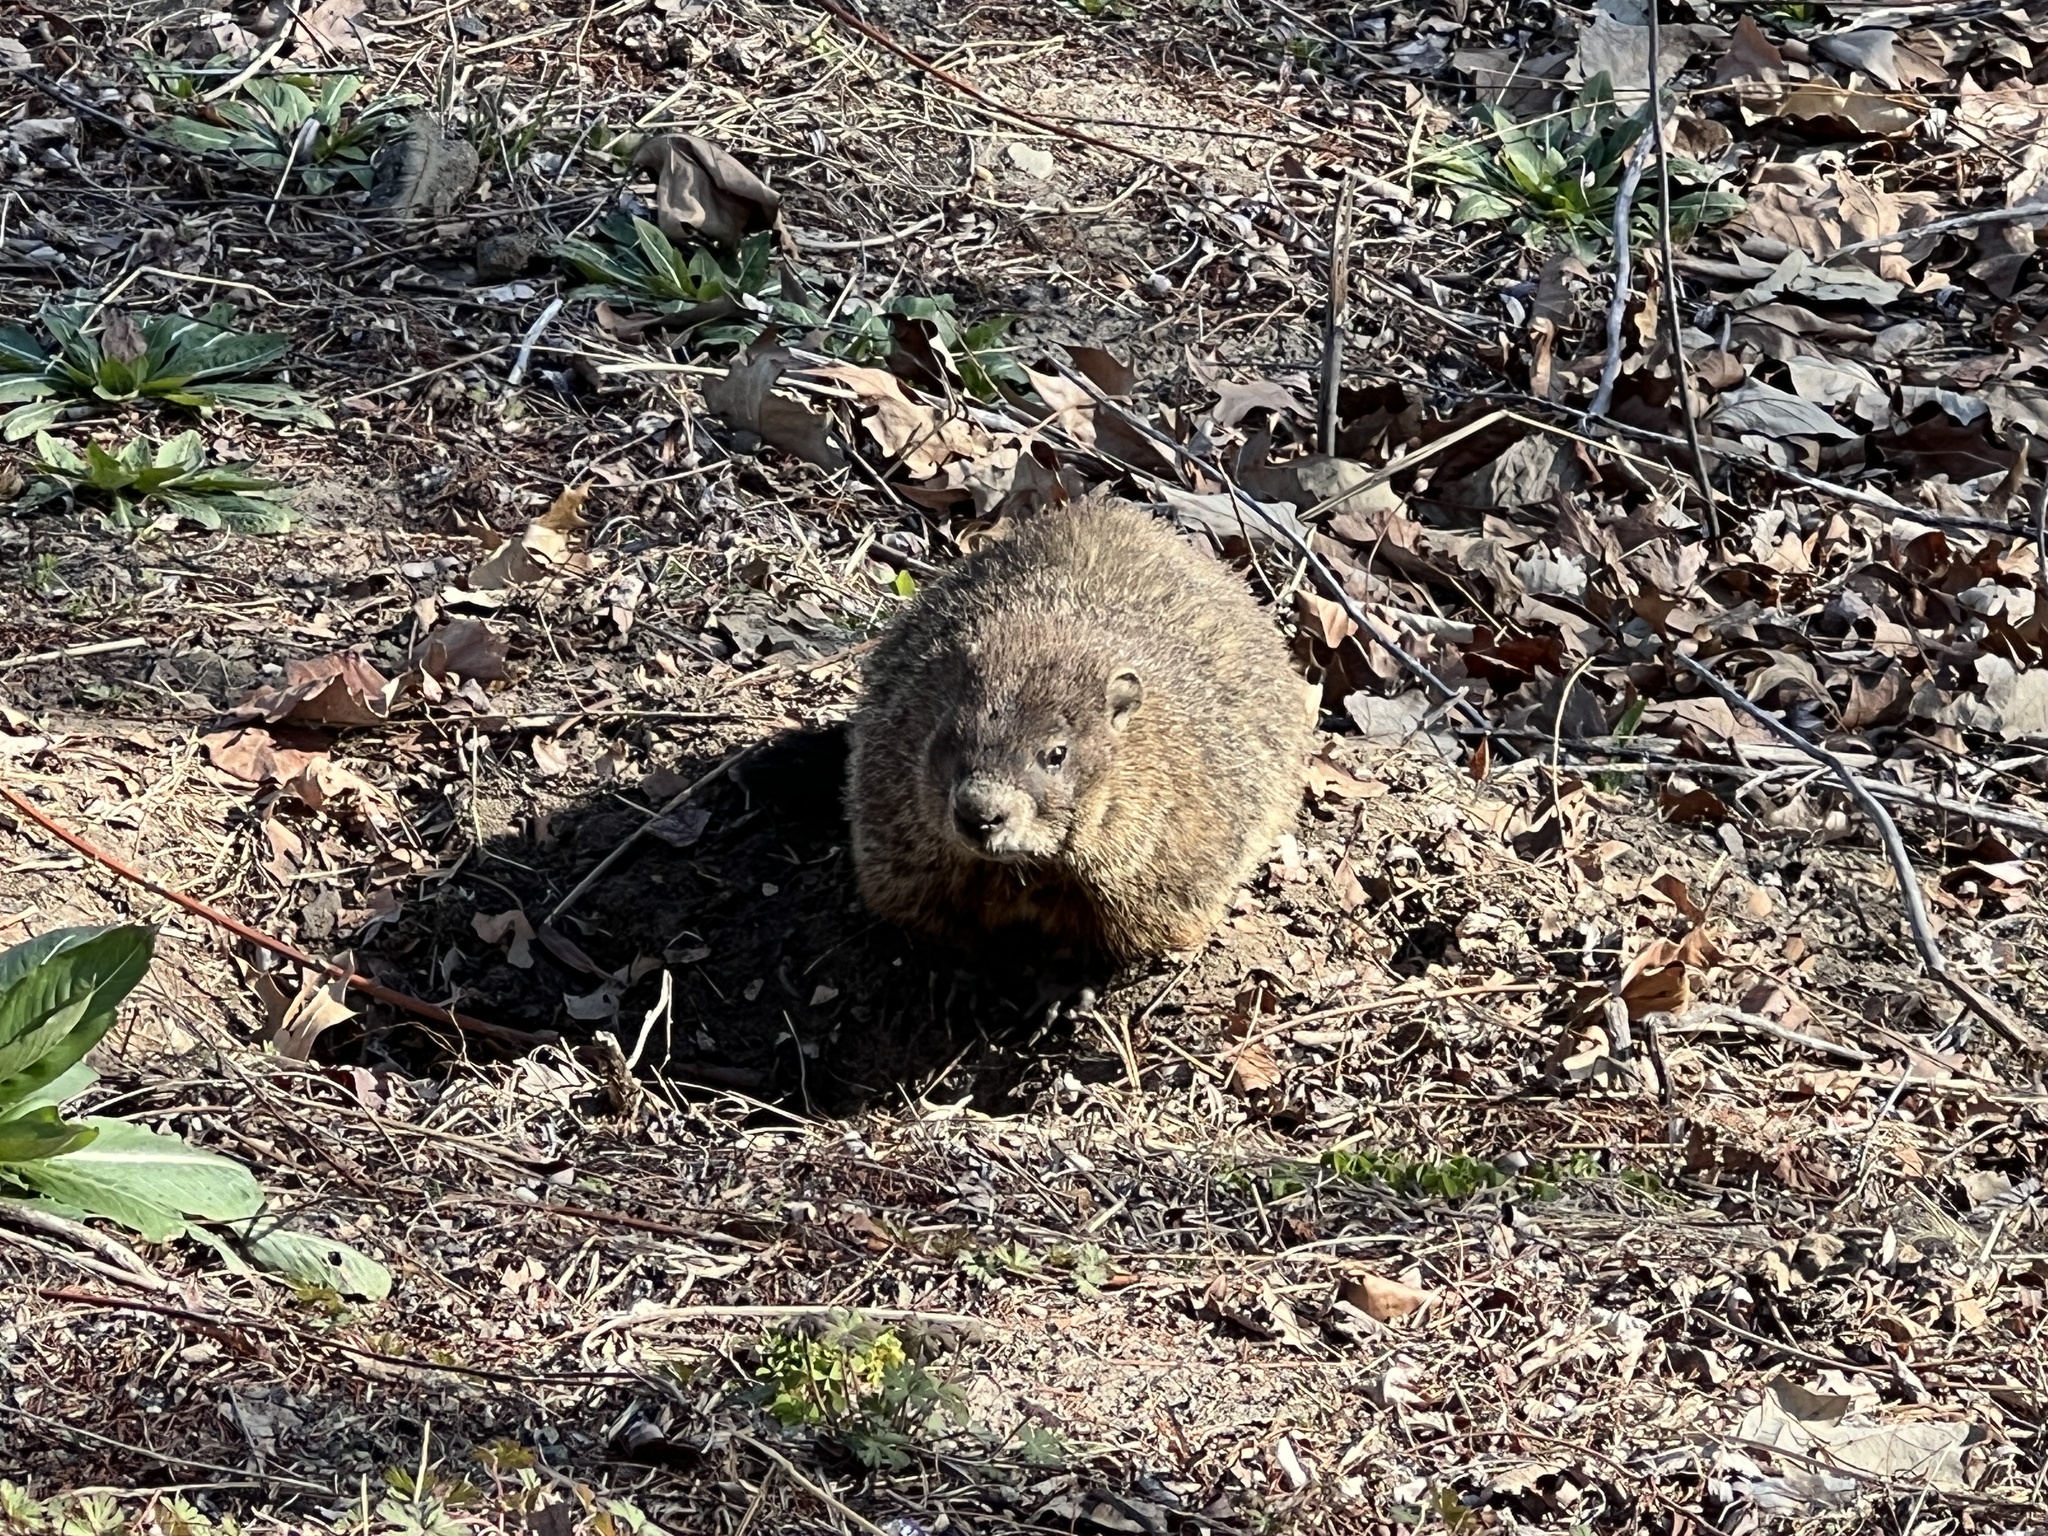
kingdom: Animalia
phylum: Chordata
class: Mammalia
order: Rodentia
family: Sciuridae
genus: Marmota
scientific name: Marmota monax
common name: Groundhog
